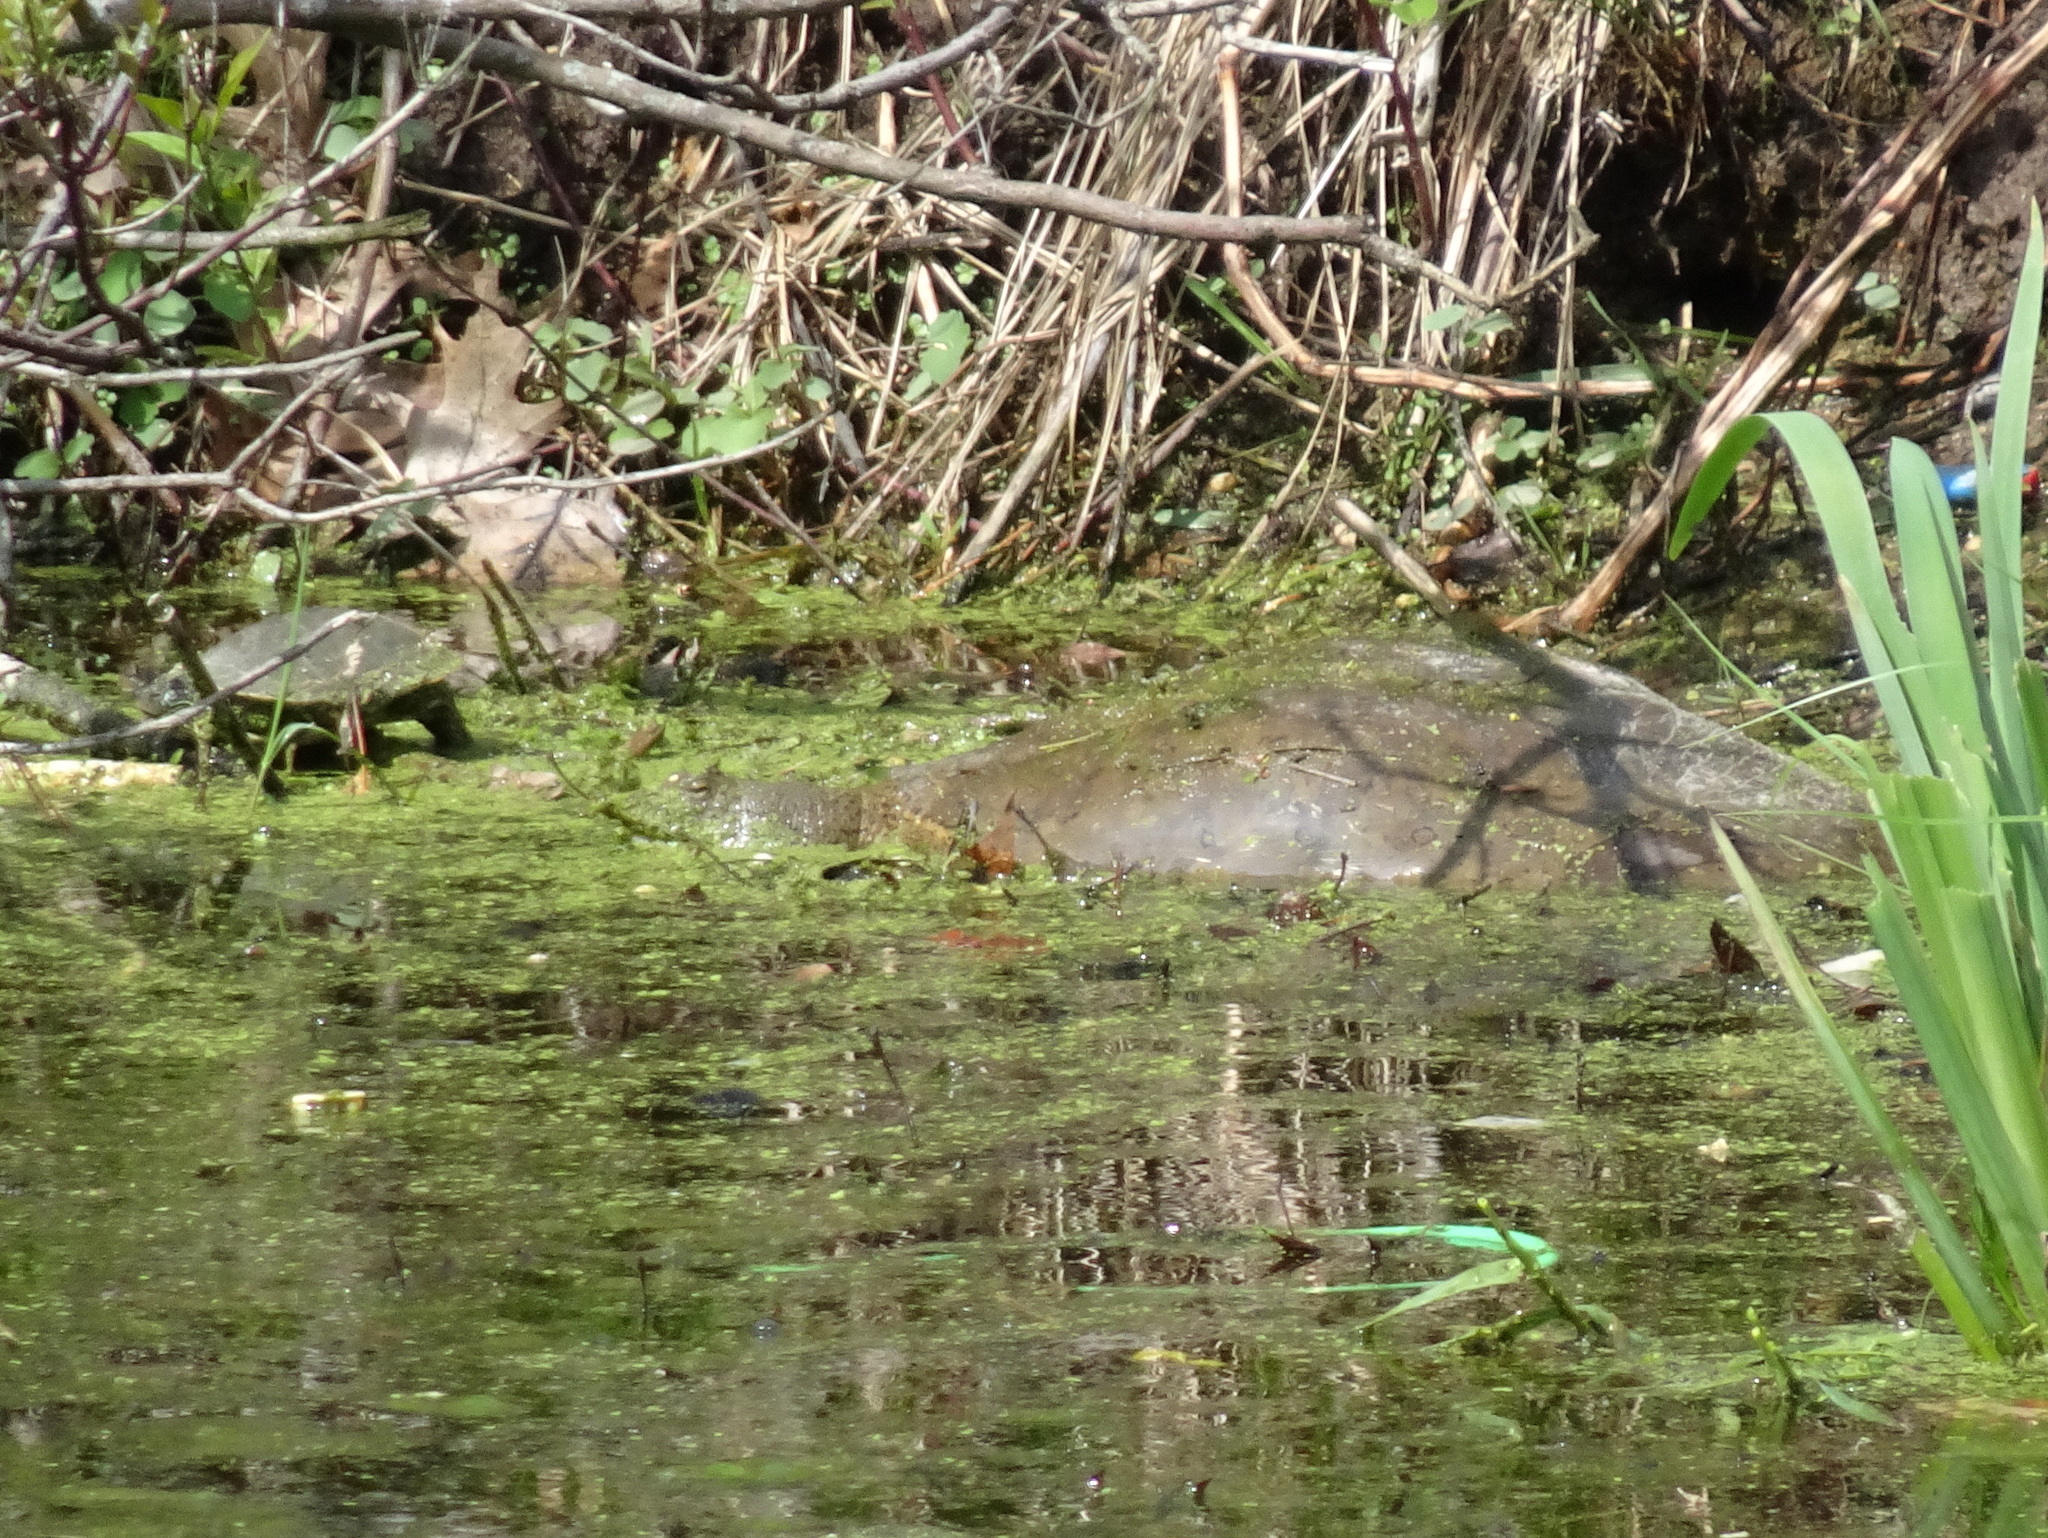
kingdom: Animalia
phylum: Chordata
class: Testudines
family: Trionychidae
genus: Apalone
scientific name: Apalone spinifera
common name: Spiny softshell turtle
